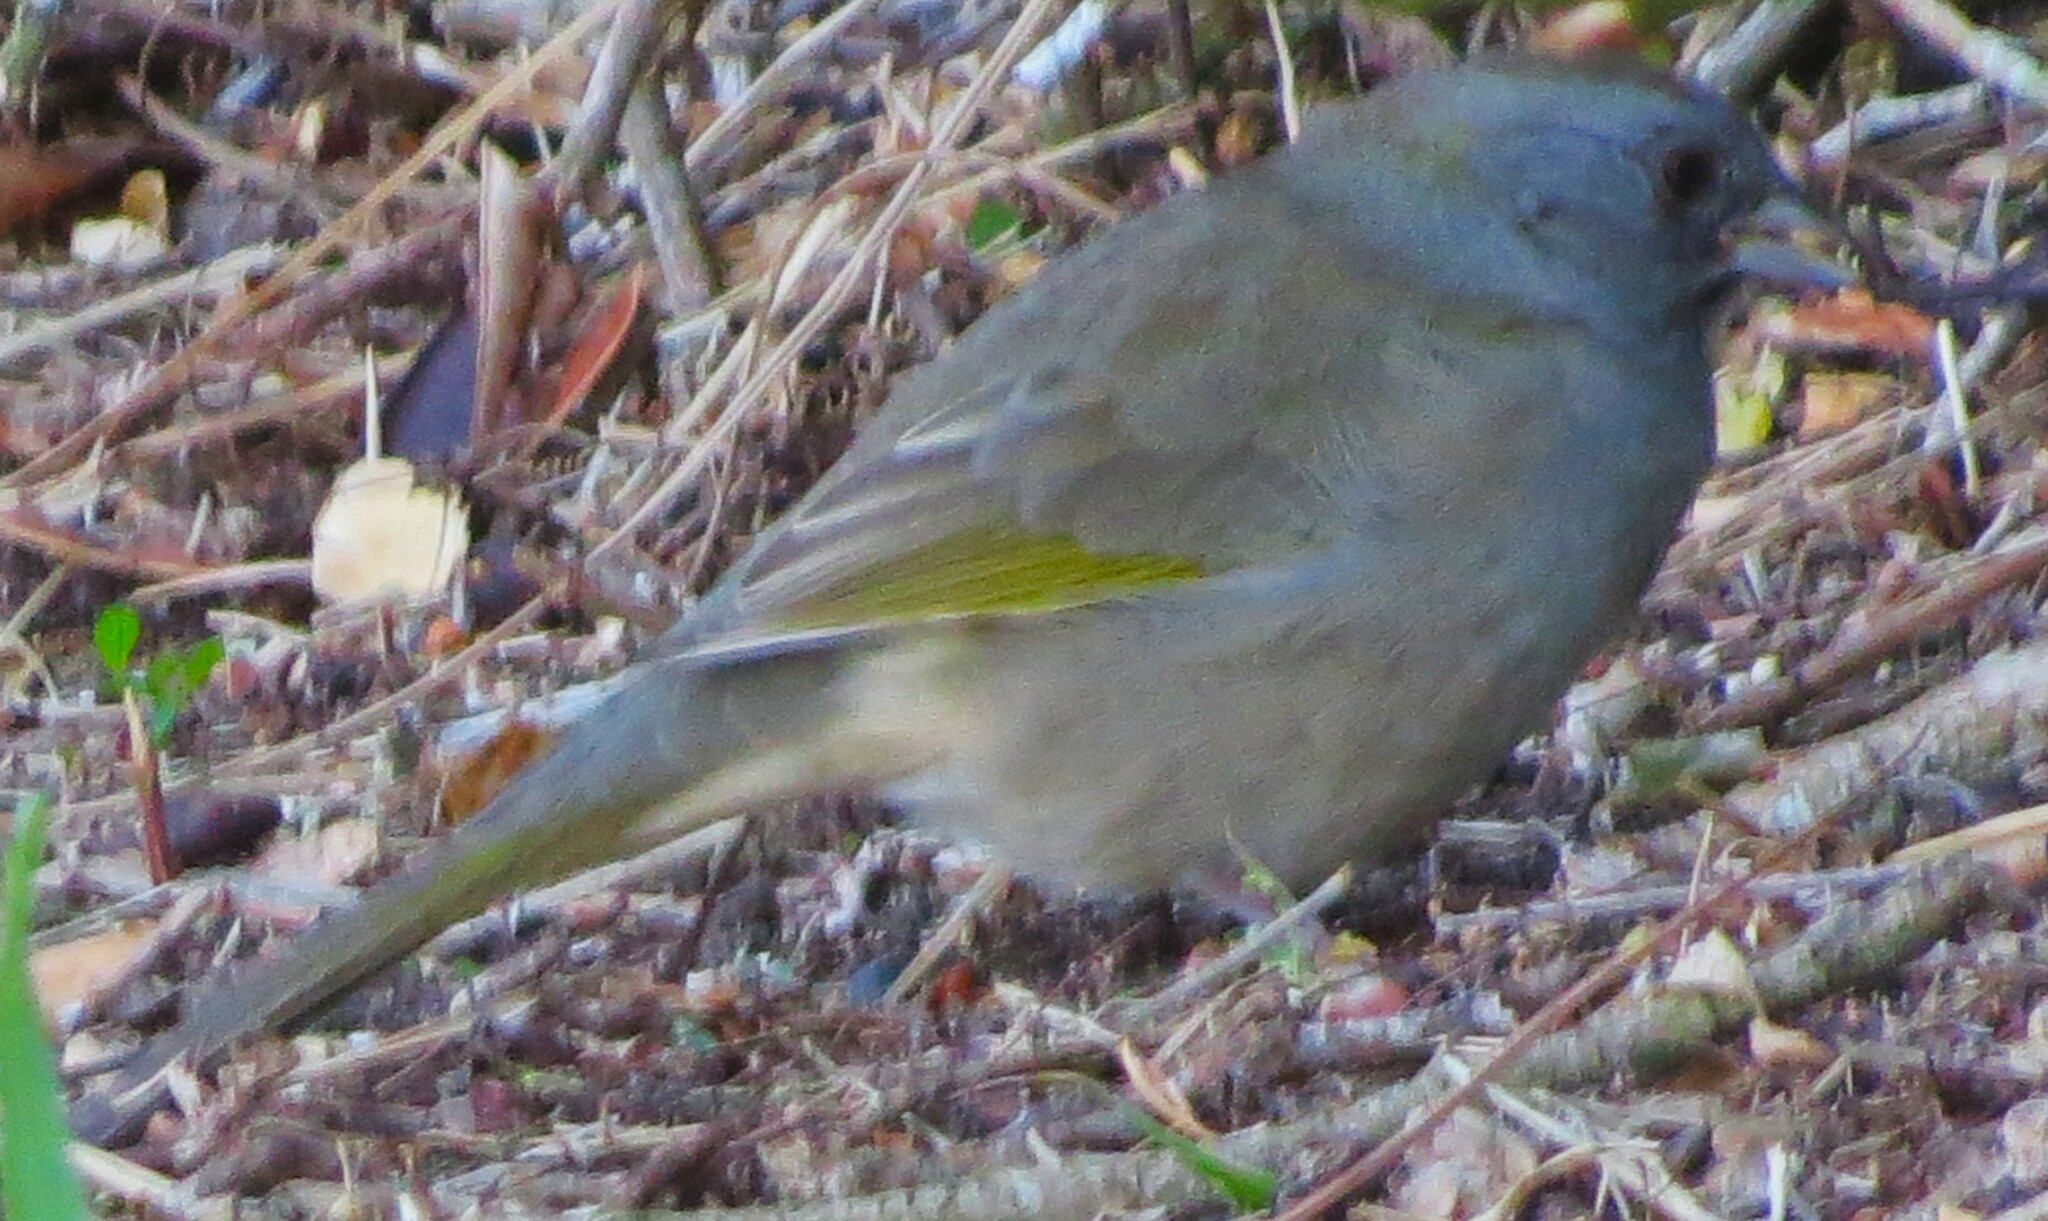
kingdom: Animalia
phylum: Chordata
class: Aves
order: Passeriformes
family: Passerellidae
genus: Pipilo
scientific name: Pipilo chlorurus
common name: Green-tailed towhee
